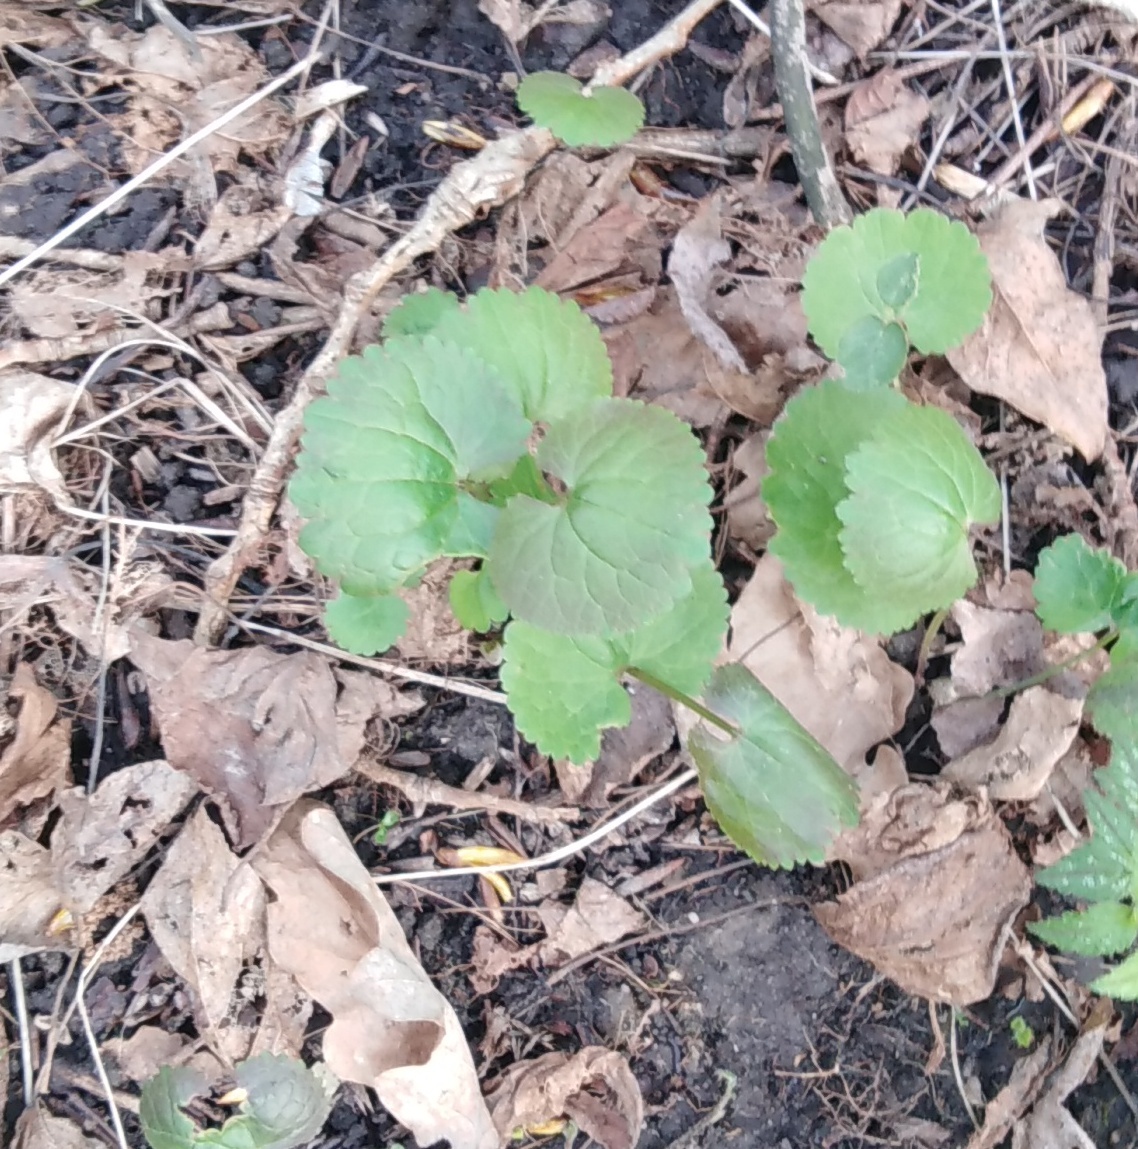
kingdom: Plantae
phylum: Tracheophyta
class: Magnoliopsida
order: Ranunculales
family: Ranunculaceae
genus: Ranunculus
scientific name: Ranunculus cassubicus
